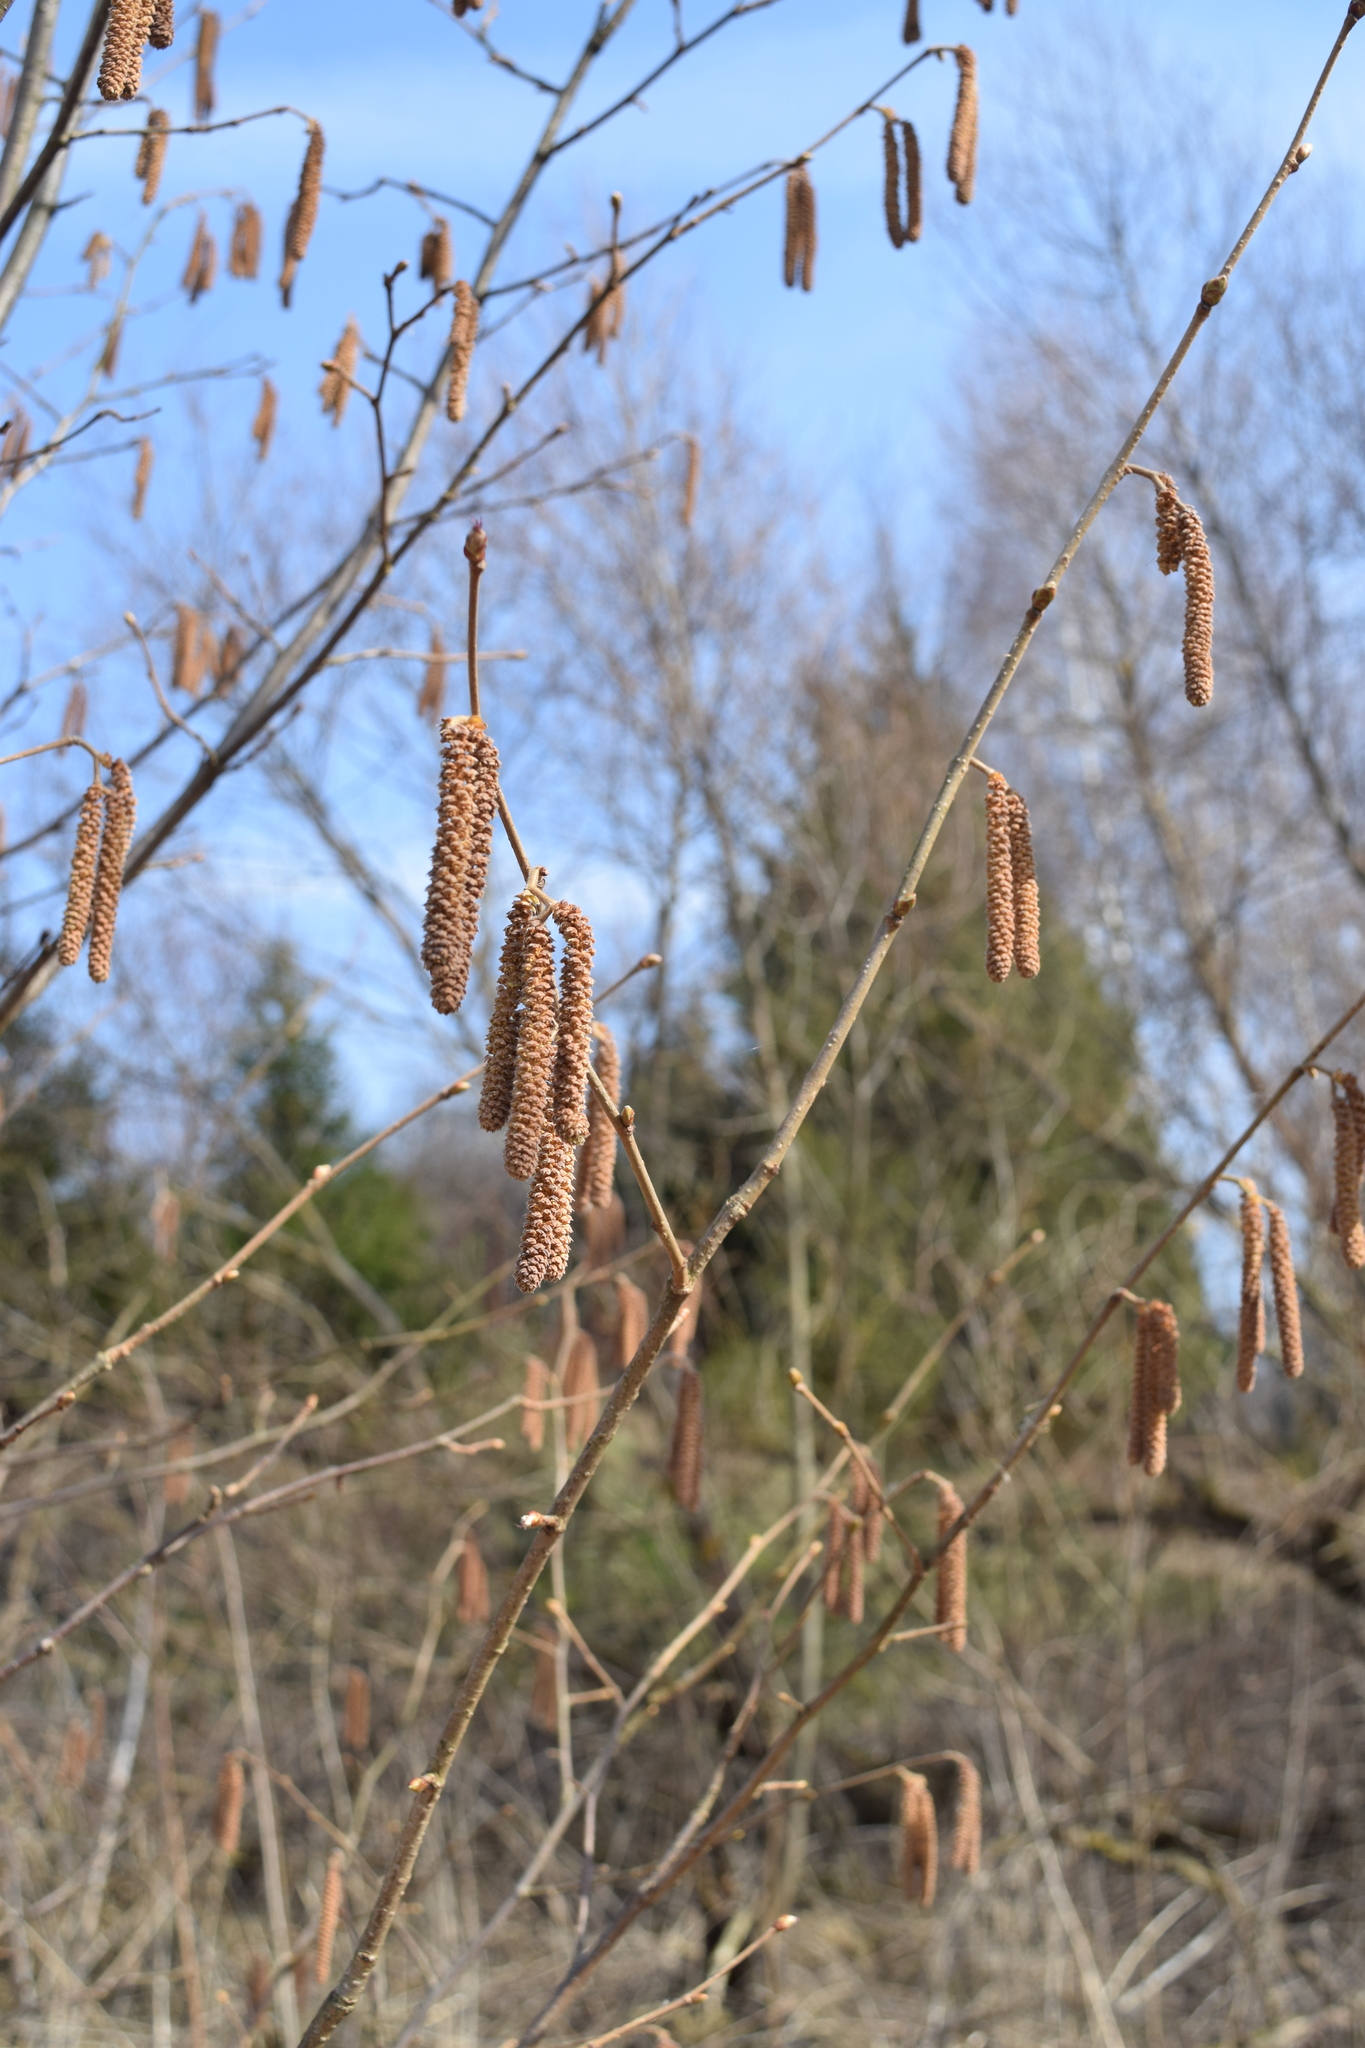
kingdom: Plantae
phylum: Tracheophyta
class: Magnoliopsida
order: Fagales
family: Betulaceae
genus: Corylus
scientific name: Corylus avellana
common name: European hazel
